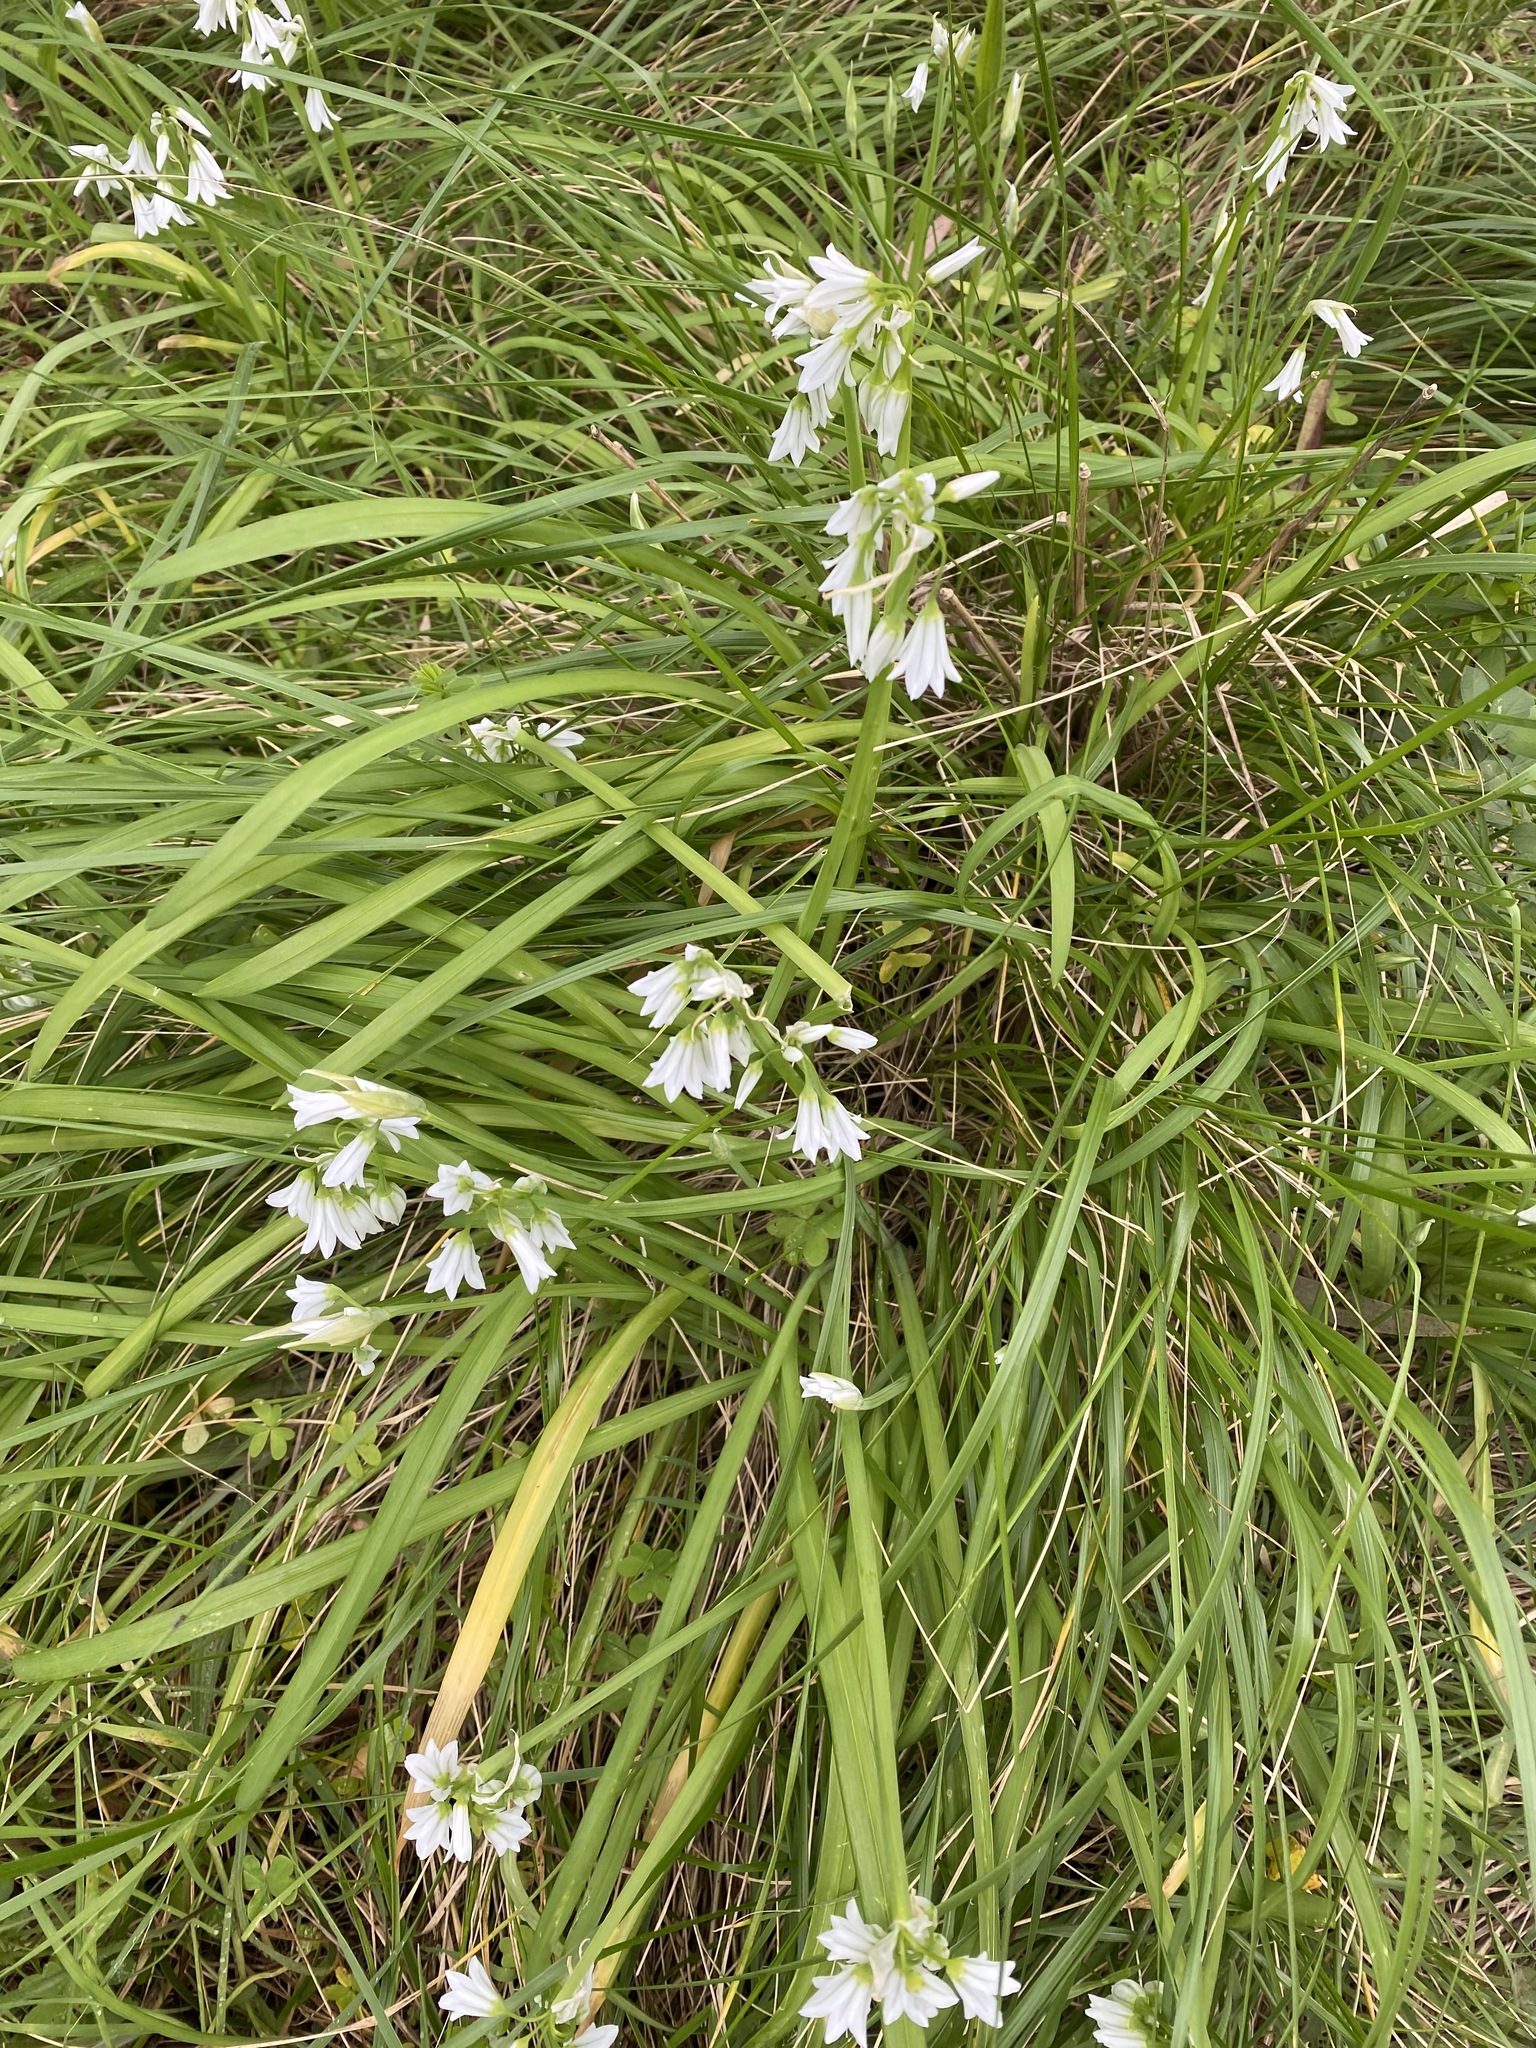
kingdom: Plantae
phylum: Tracheophyta
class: Liliopsida
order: Asparagales
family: Amaryllidaceae
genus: Allium
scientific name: Allium triquetrum
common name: Three-cornered garlic
